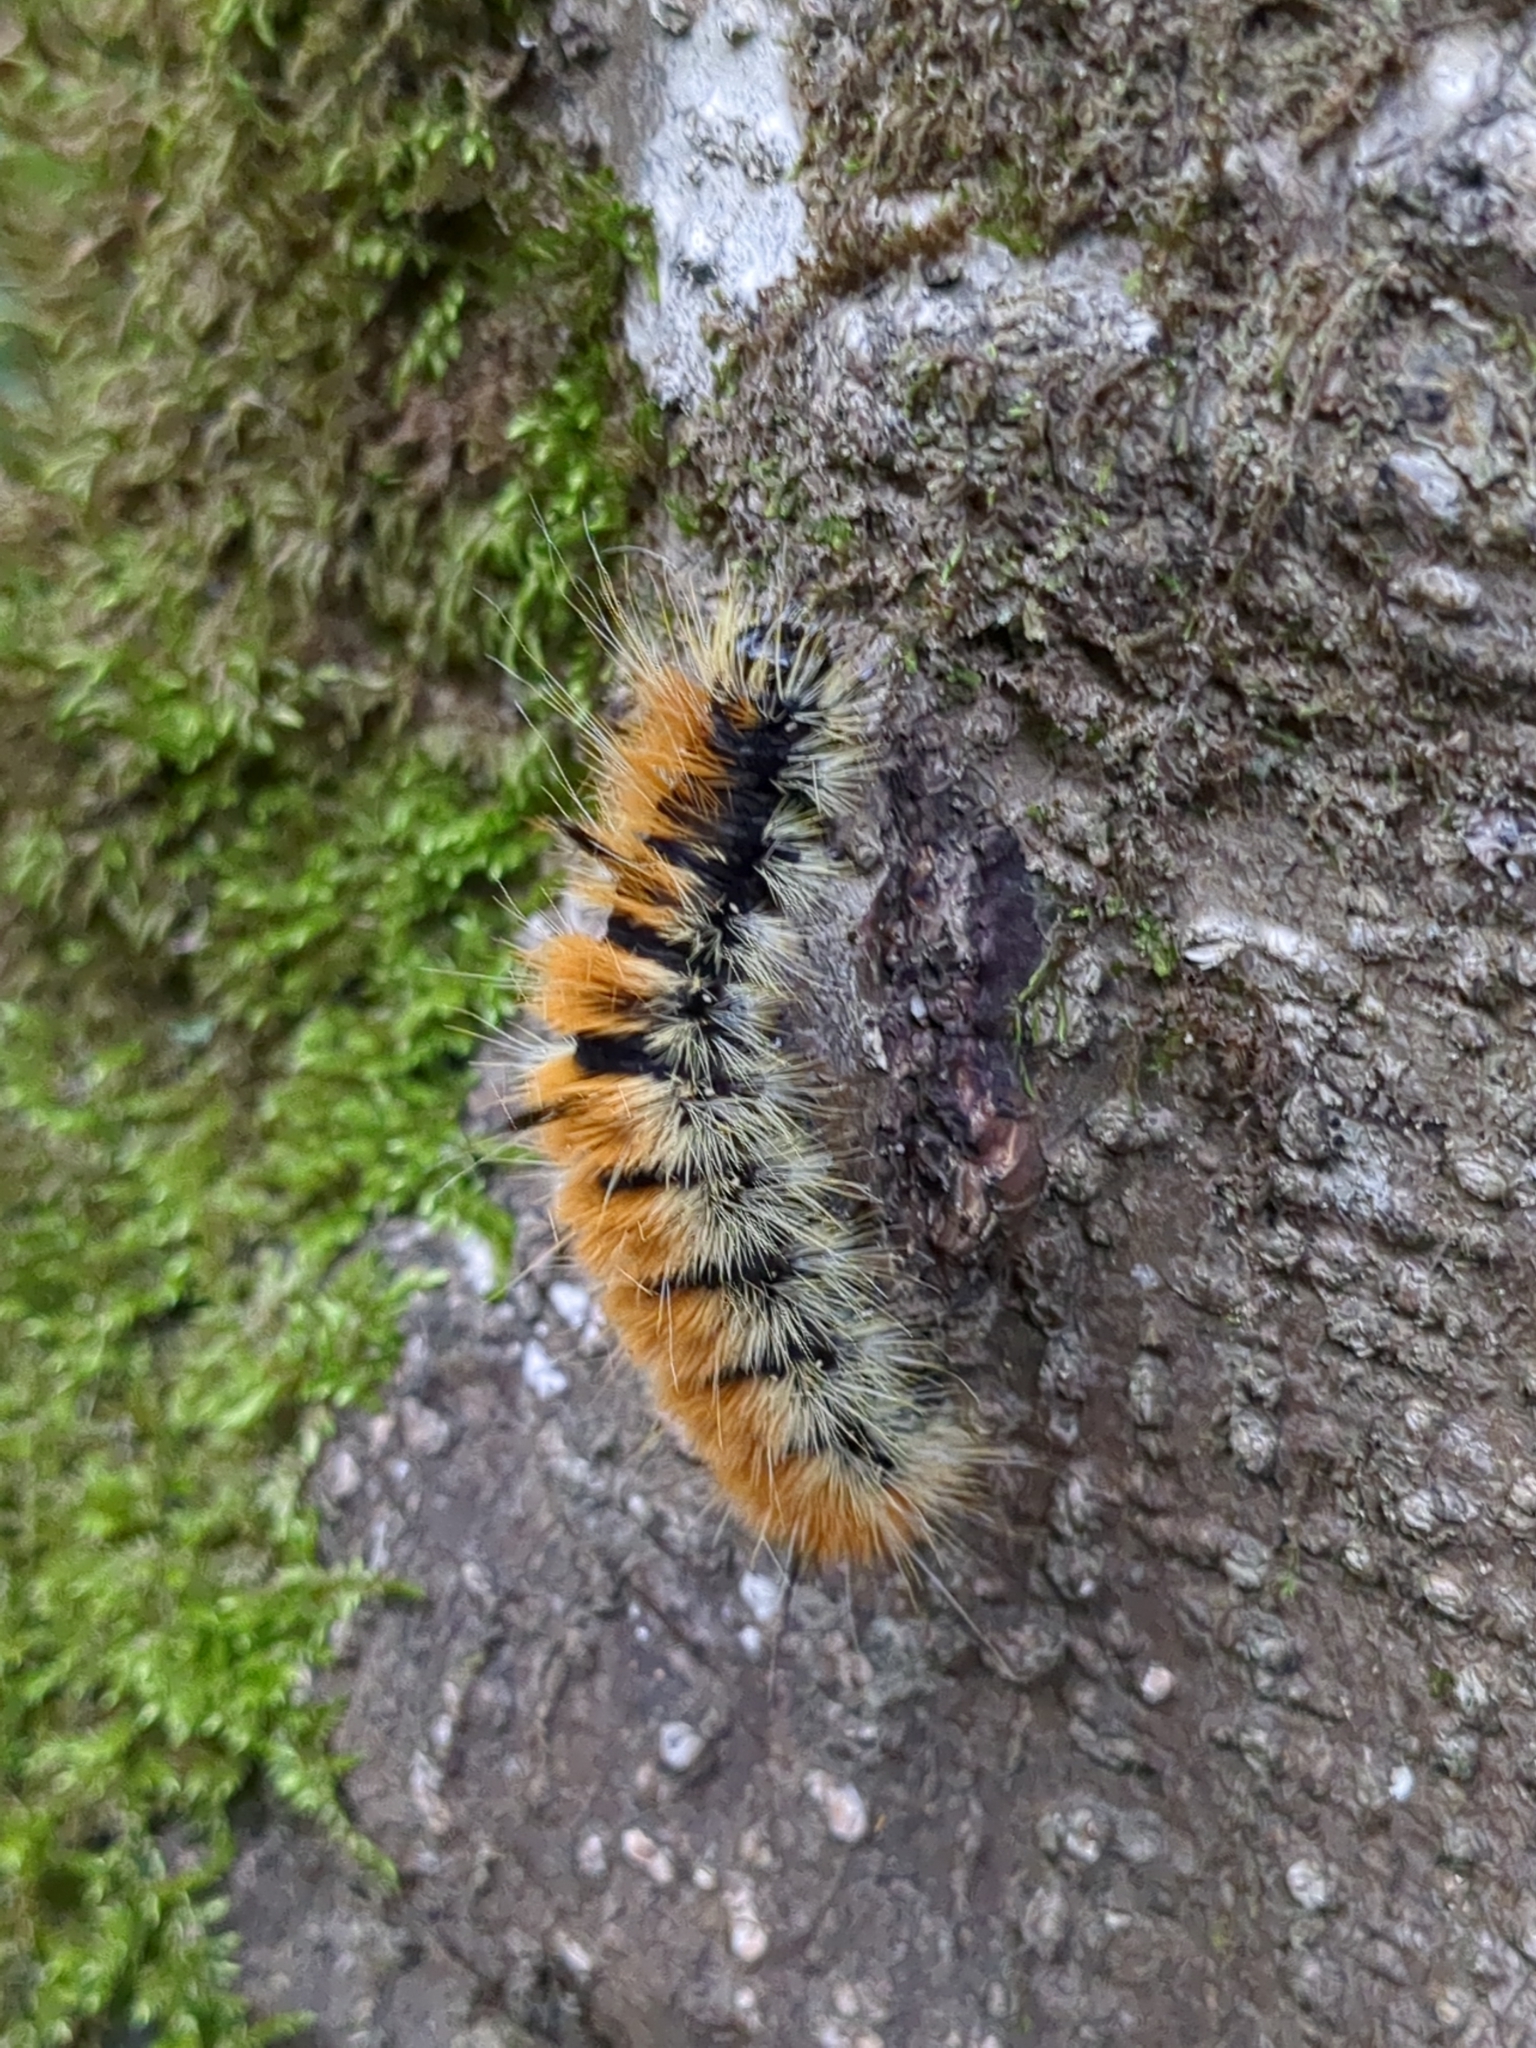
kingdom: Animalia
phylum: Arthropoda
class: Insecta
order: Lepidoptera
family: Noctuidae
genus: Acronicta
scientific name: Acronicta insita
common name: Large gray dagger
